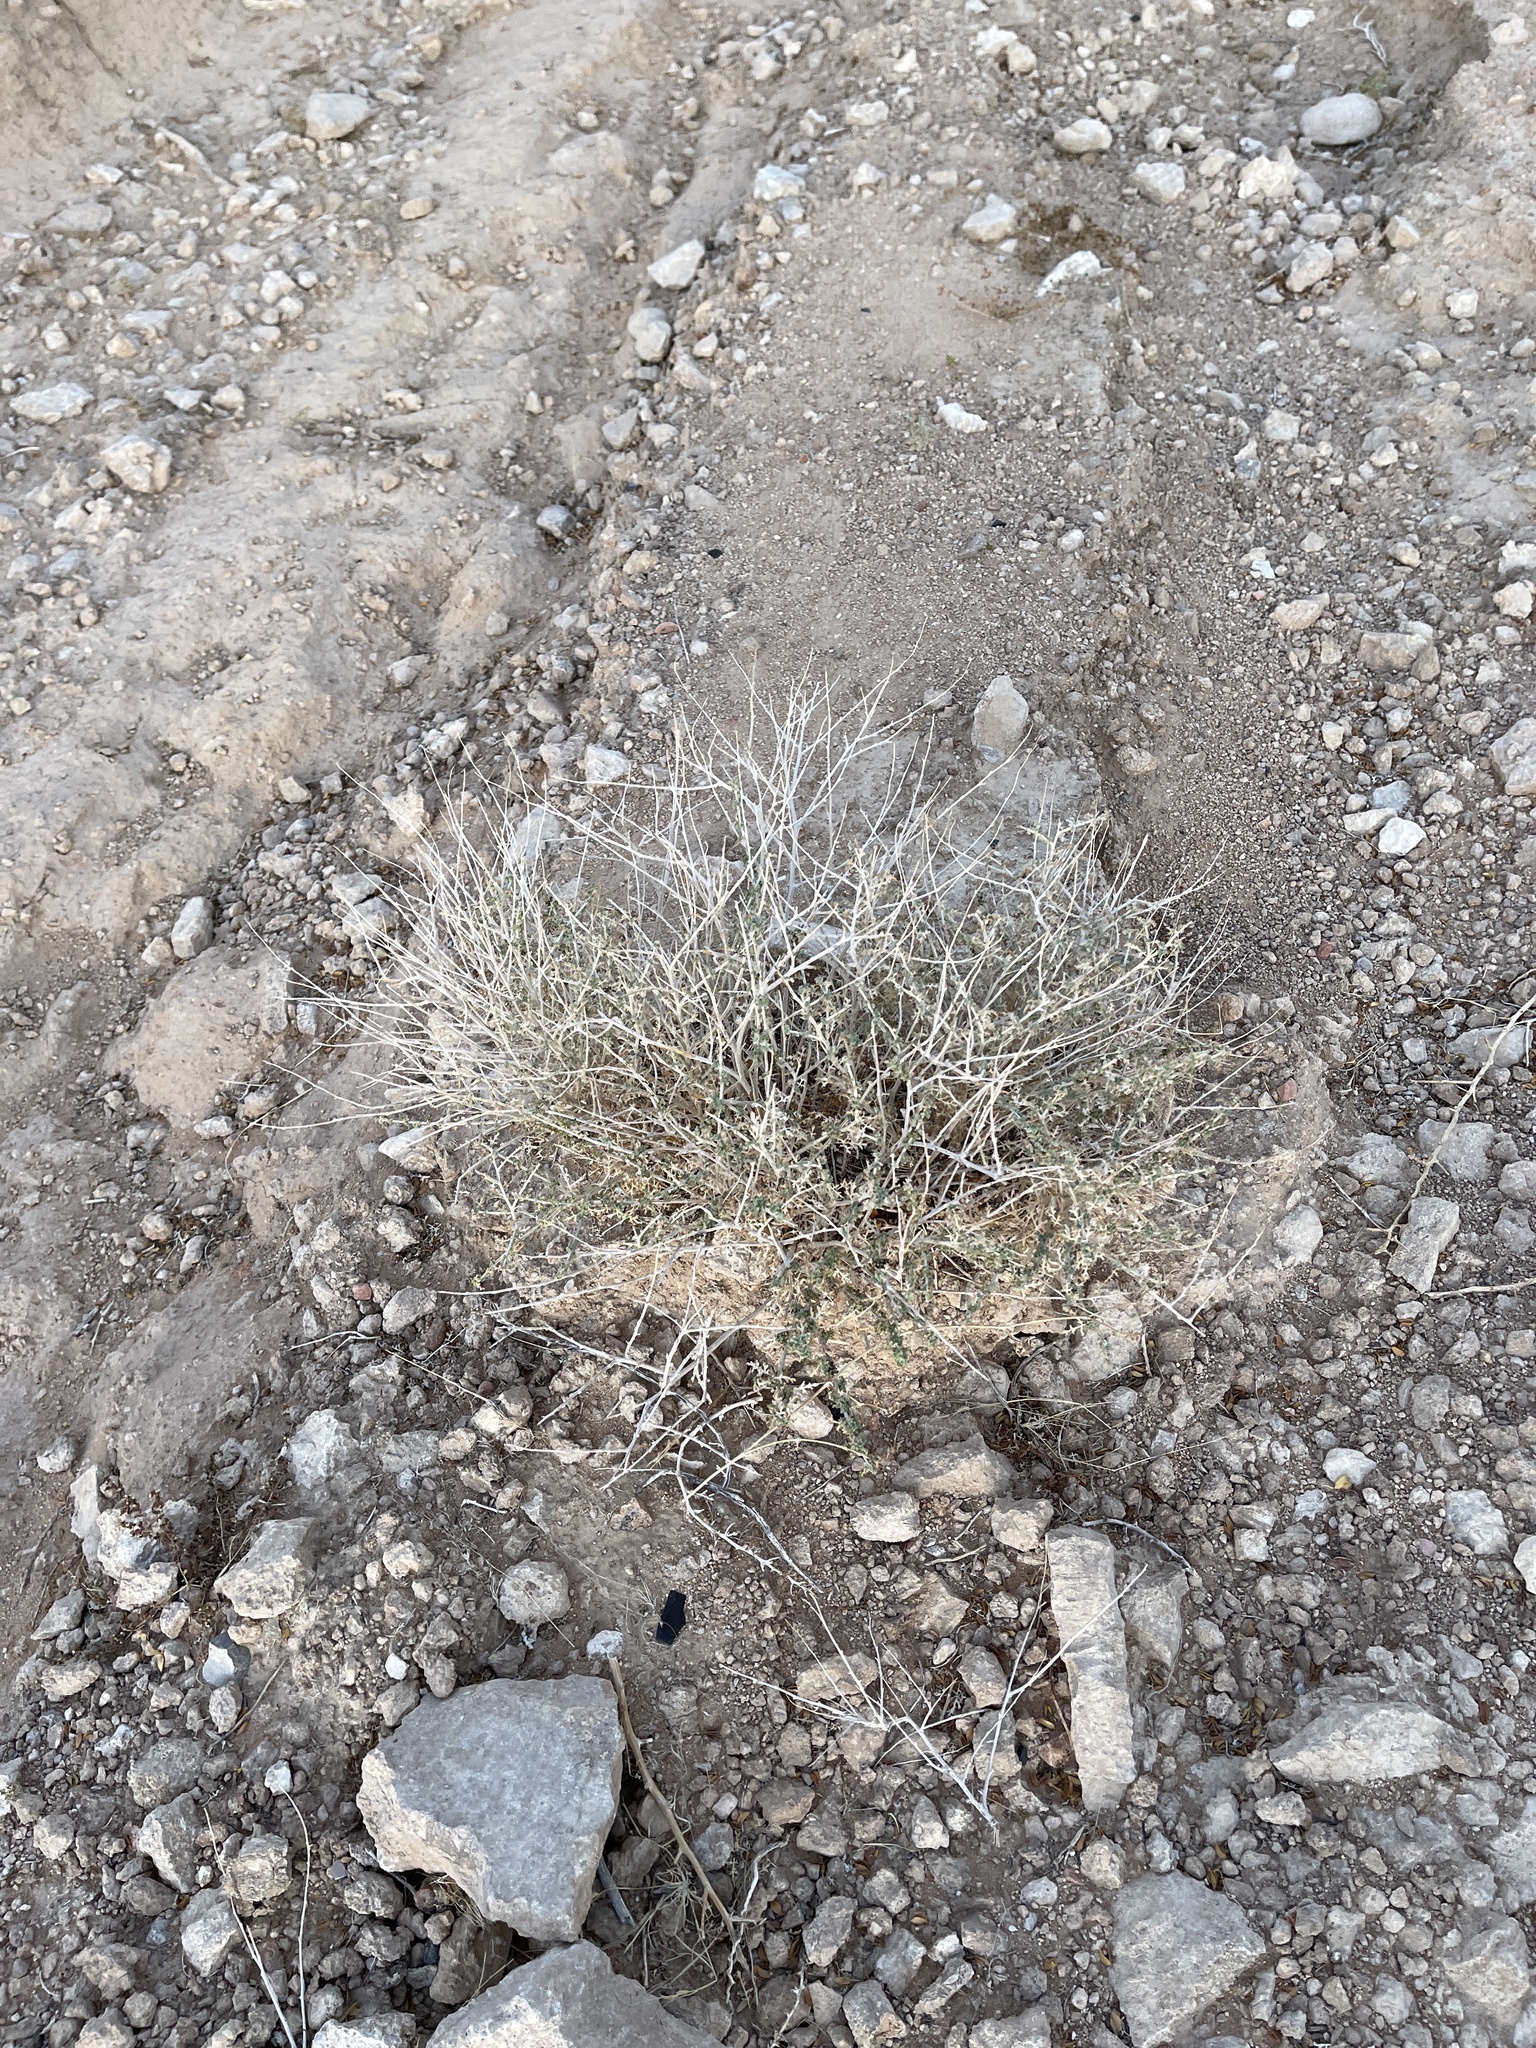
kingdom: Plantae
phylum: Tracheophyta
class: Magnoliopsida
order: Asterales
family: Asteraceae
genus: Ambrosia
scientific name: Ambrosia dumosa
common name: Bur-sage
